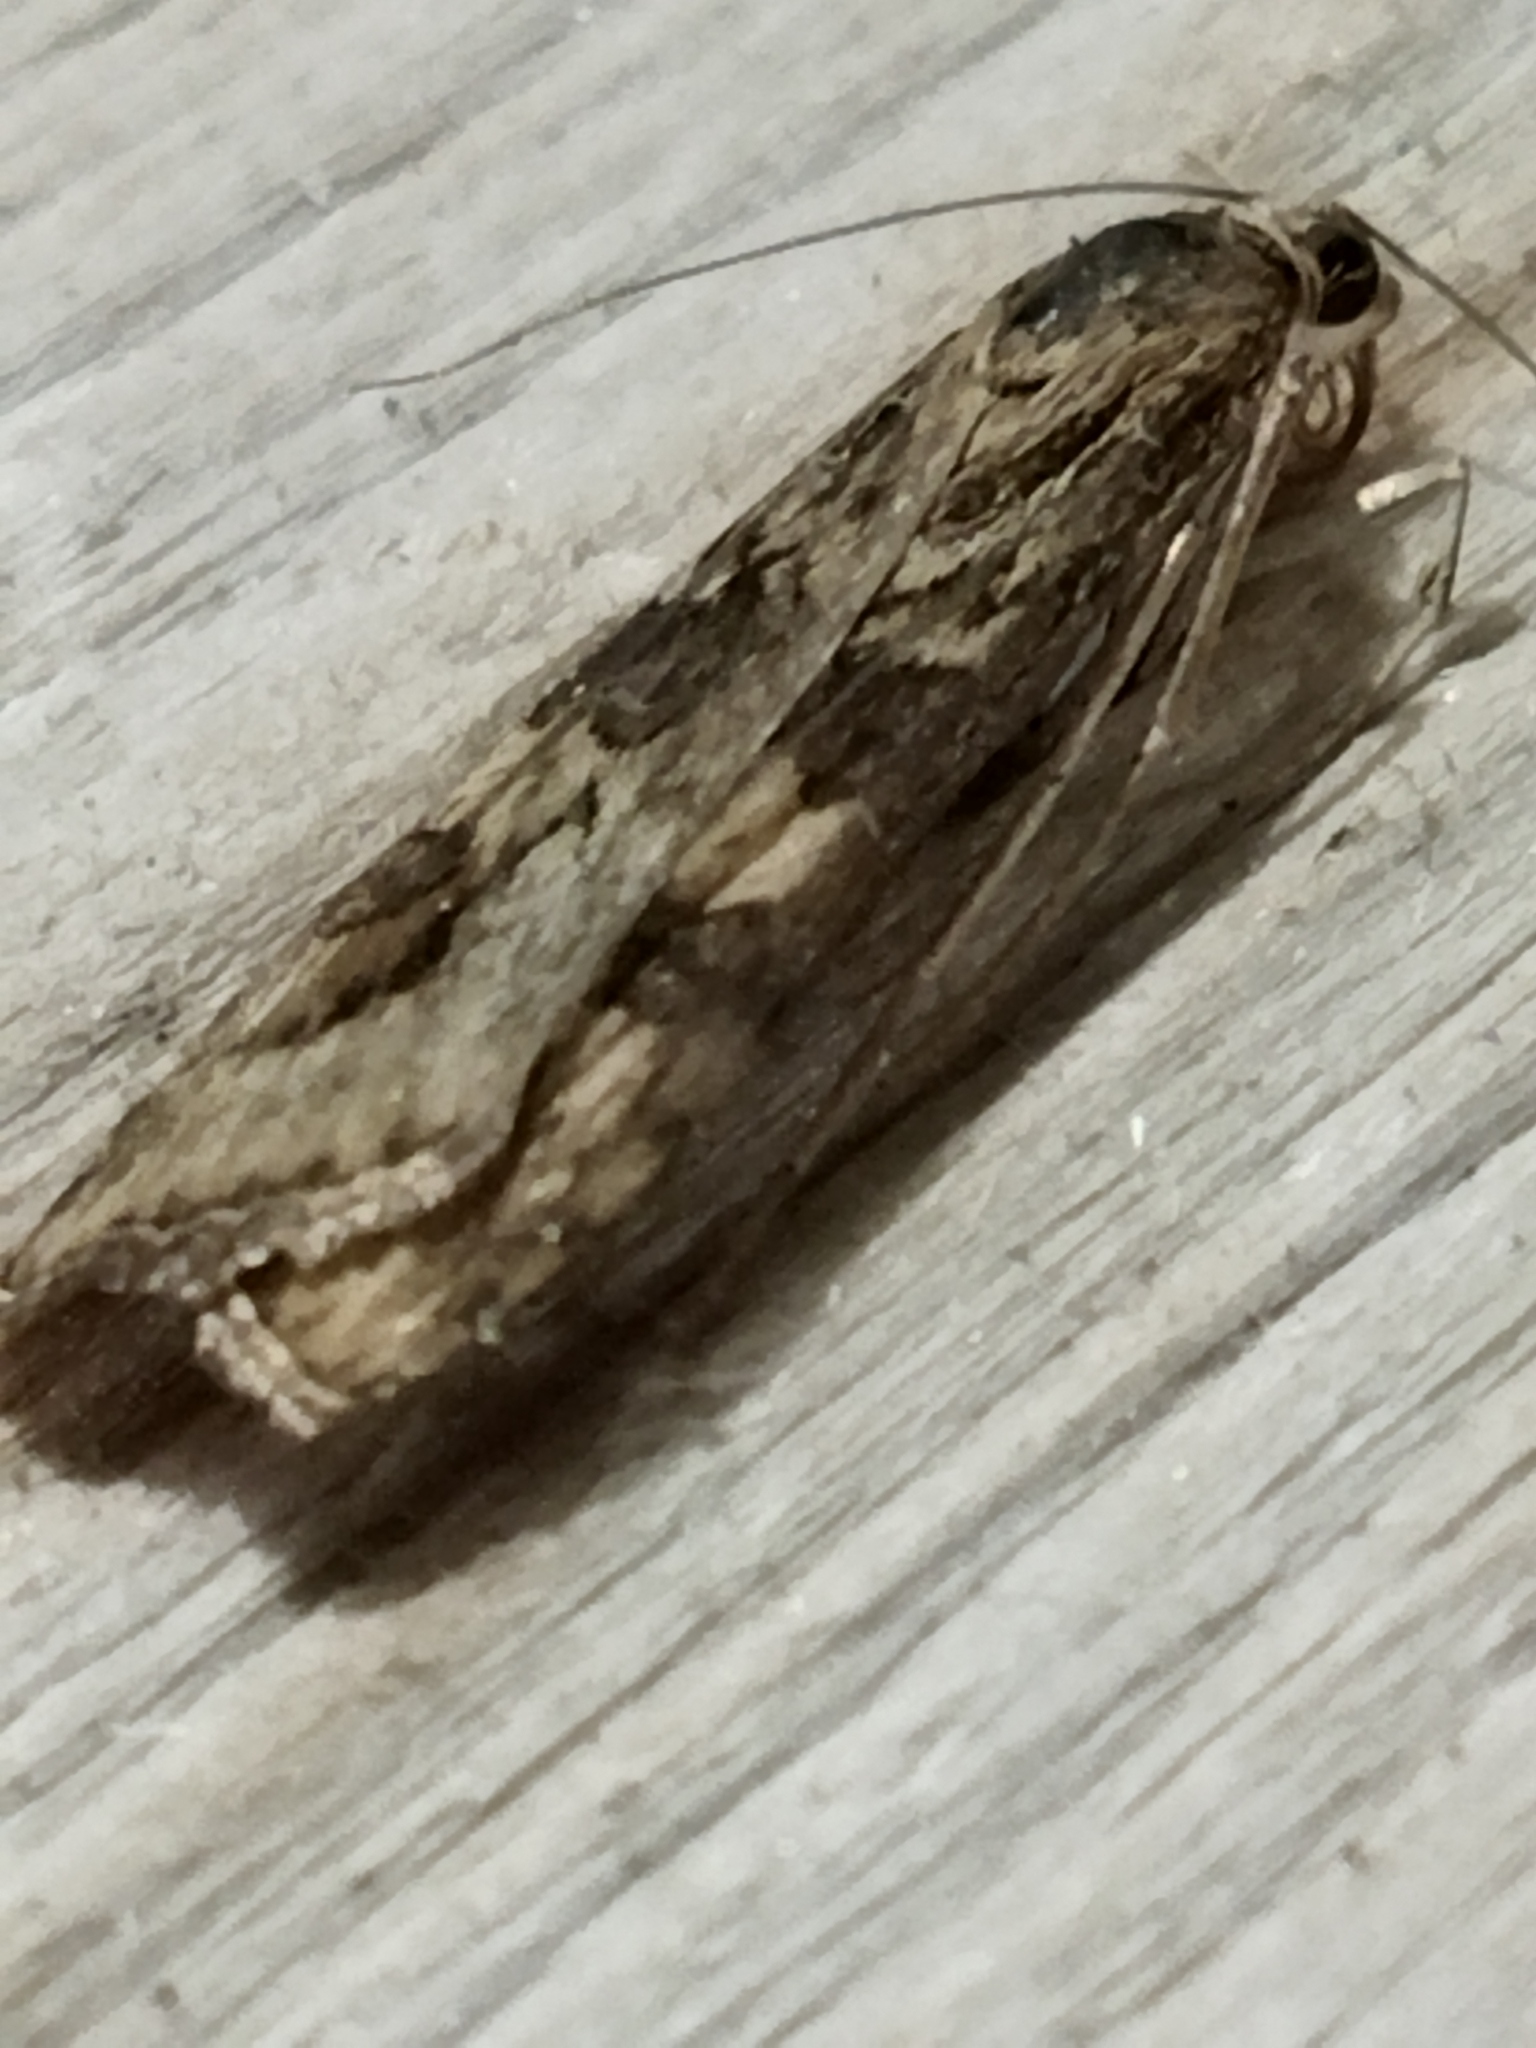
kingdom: Animalia
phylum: Arthropoda
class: Insecta
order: Lepidoptera
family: Crambidae
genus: Nomophila
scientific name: Nomophila noctuella
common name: Rush veneer
